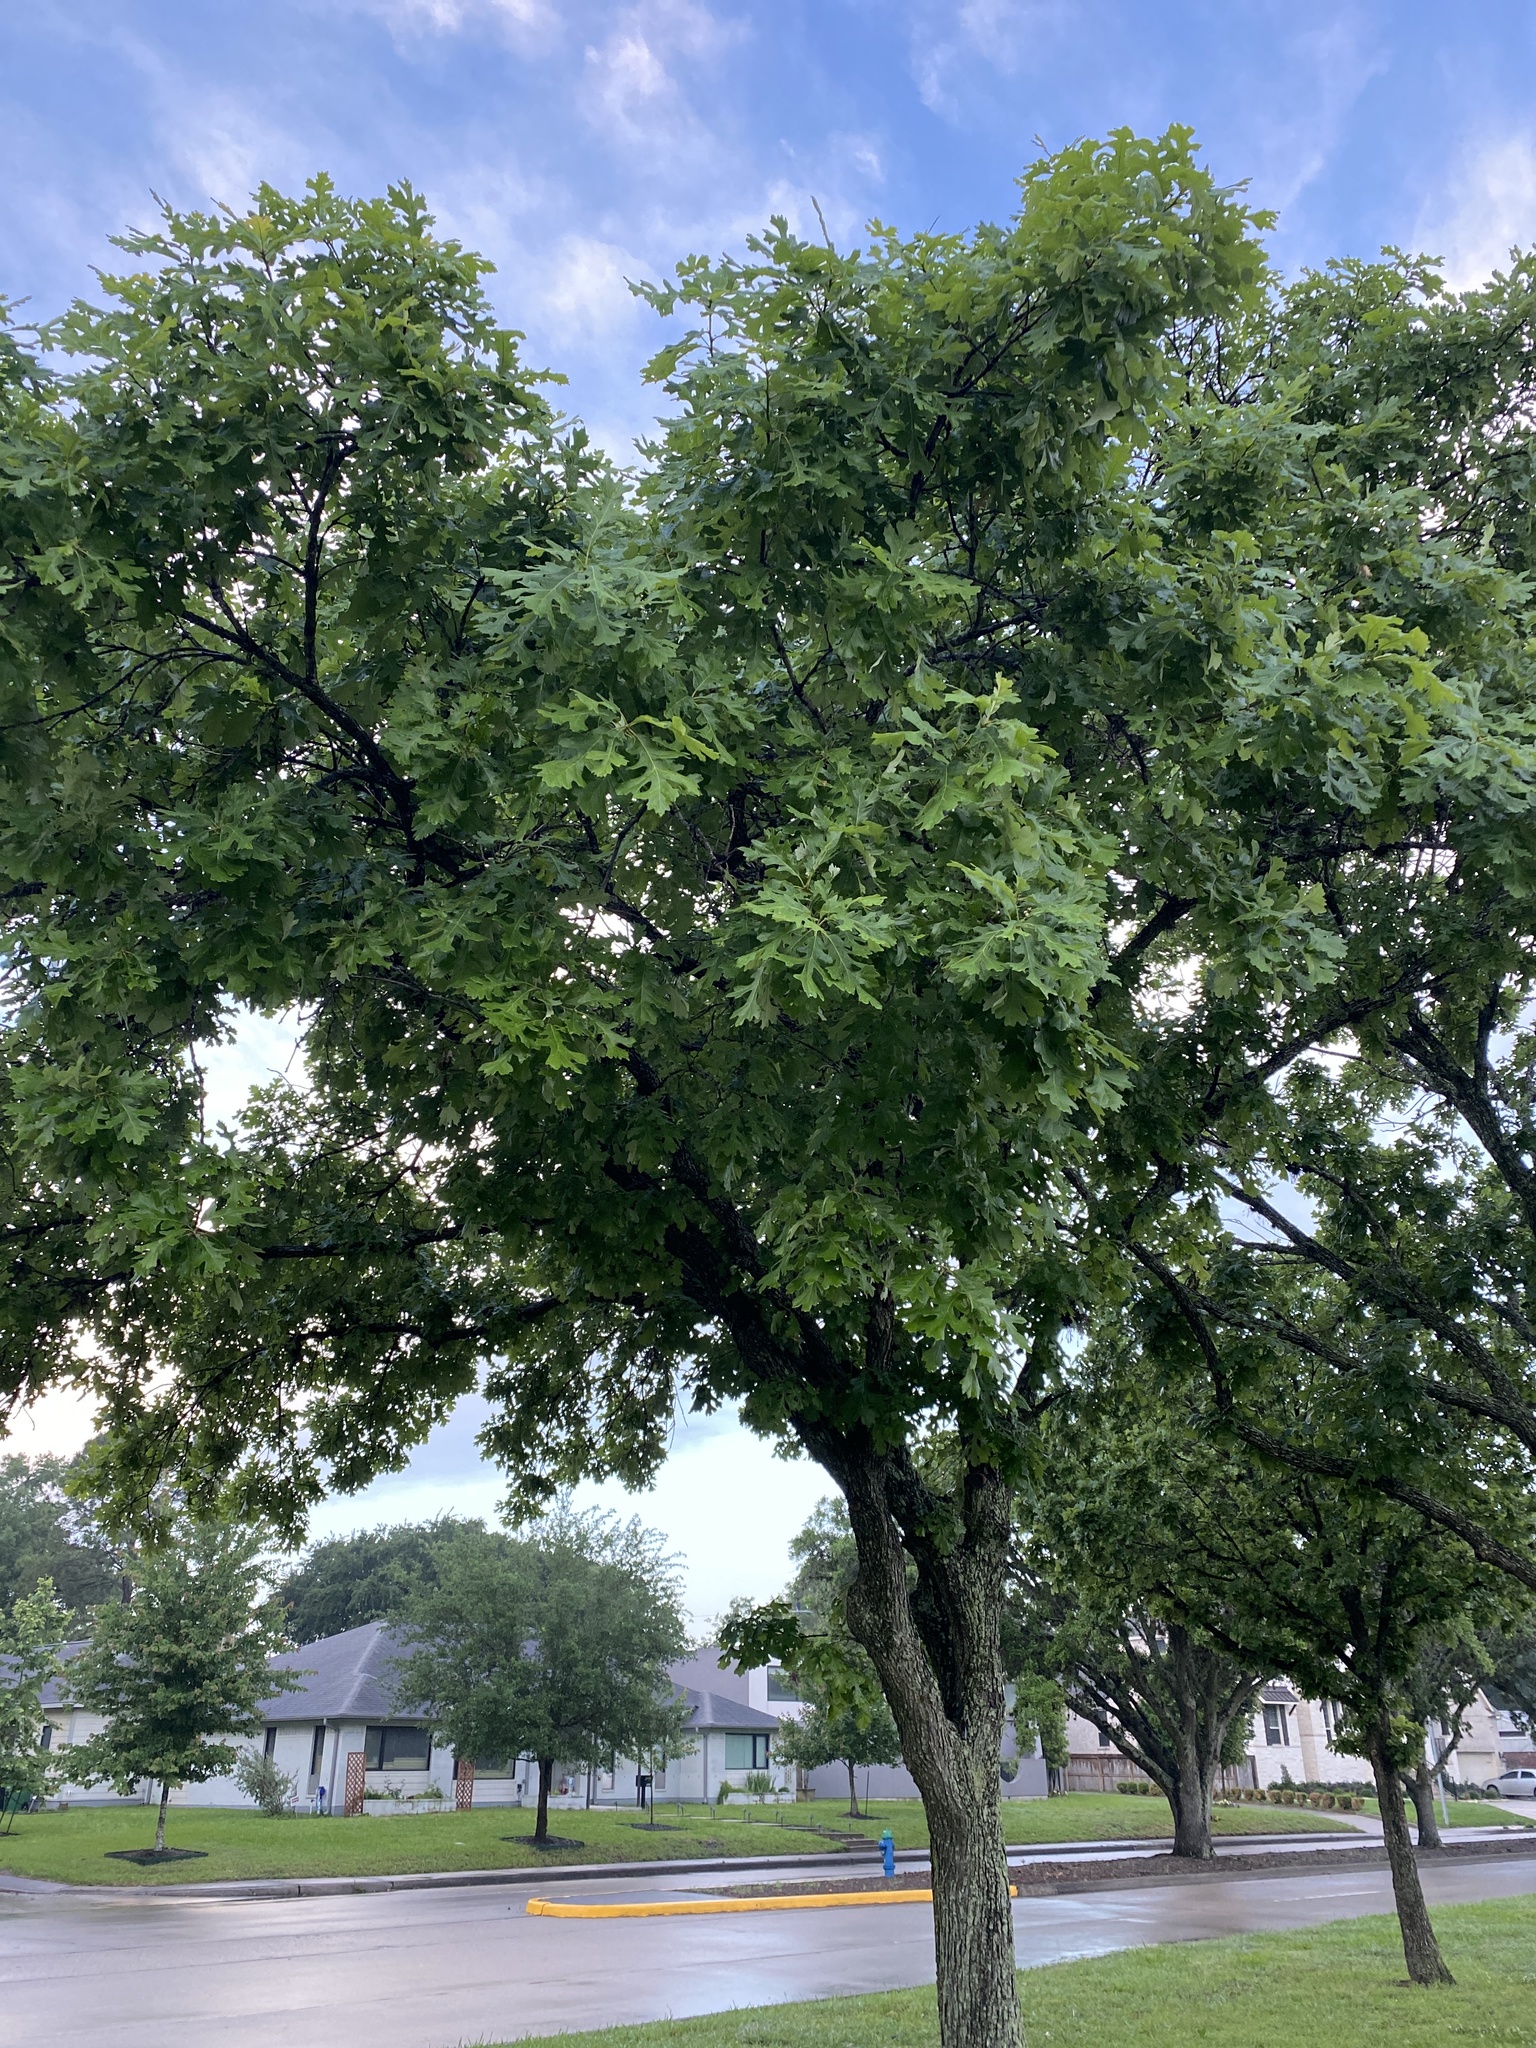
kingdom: Plantae
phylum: Tracheophyta
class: Magnoliopsida
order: Fagales
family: Fagaceae
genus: Quercus
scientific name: Quercus macrocarpa
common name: Bur oak
